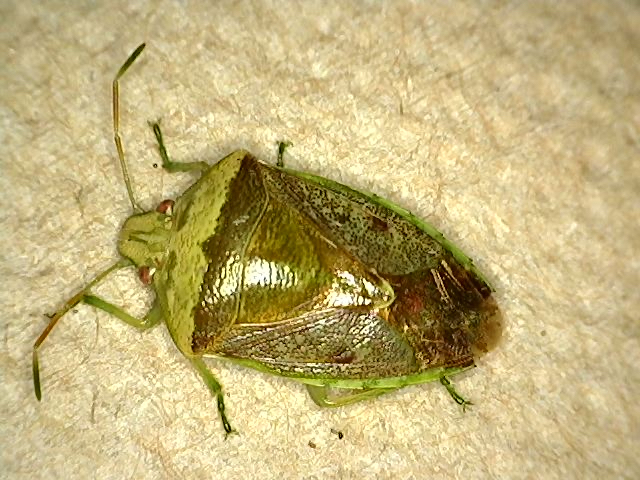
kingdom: Animalia
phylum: Arthropoda
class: Insecta
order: Hemiptera
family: Pentatomidae
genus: Banasa
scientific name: Banasa calva
